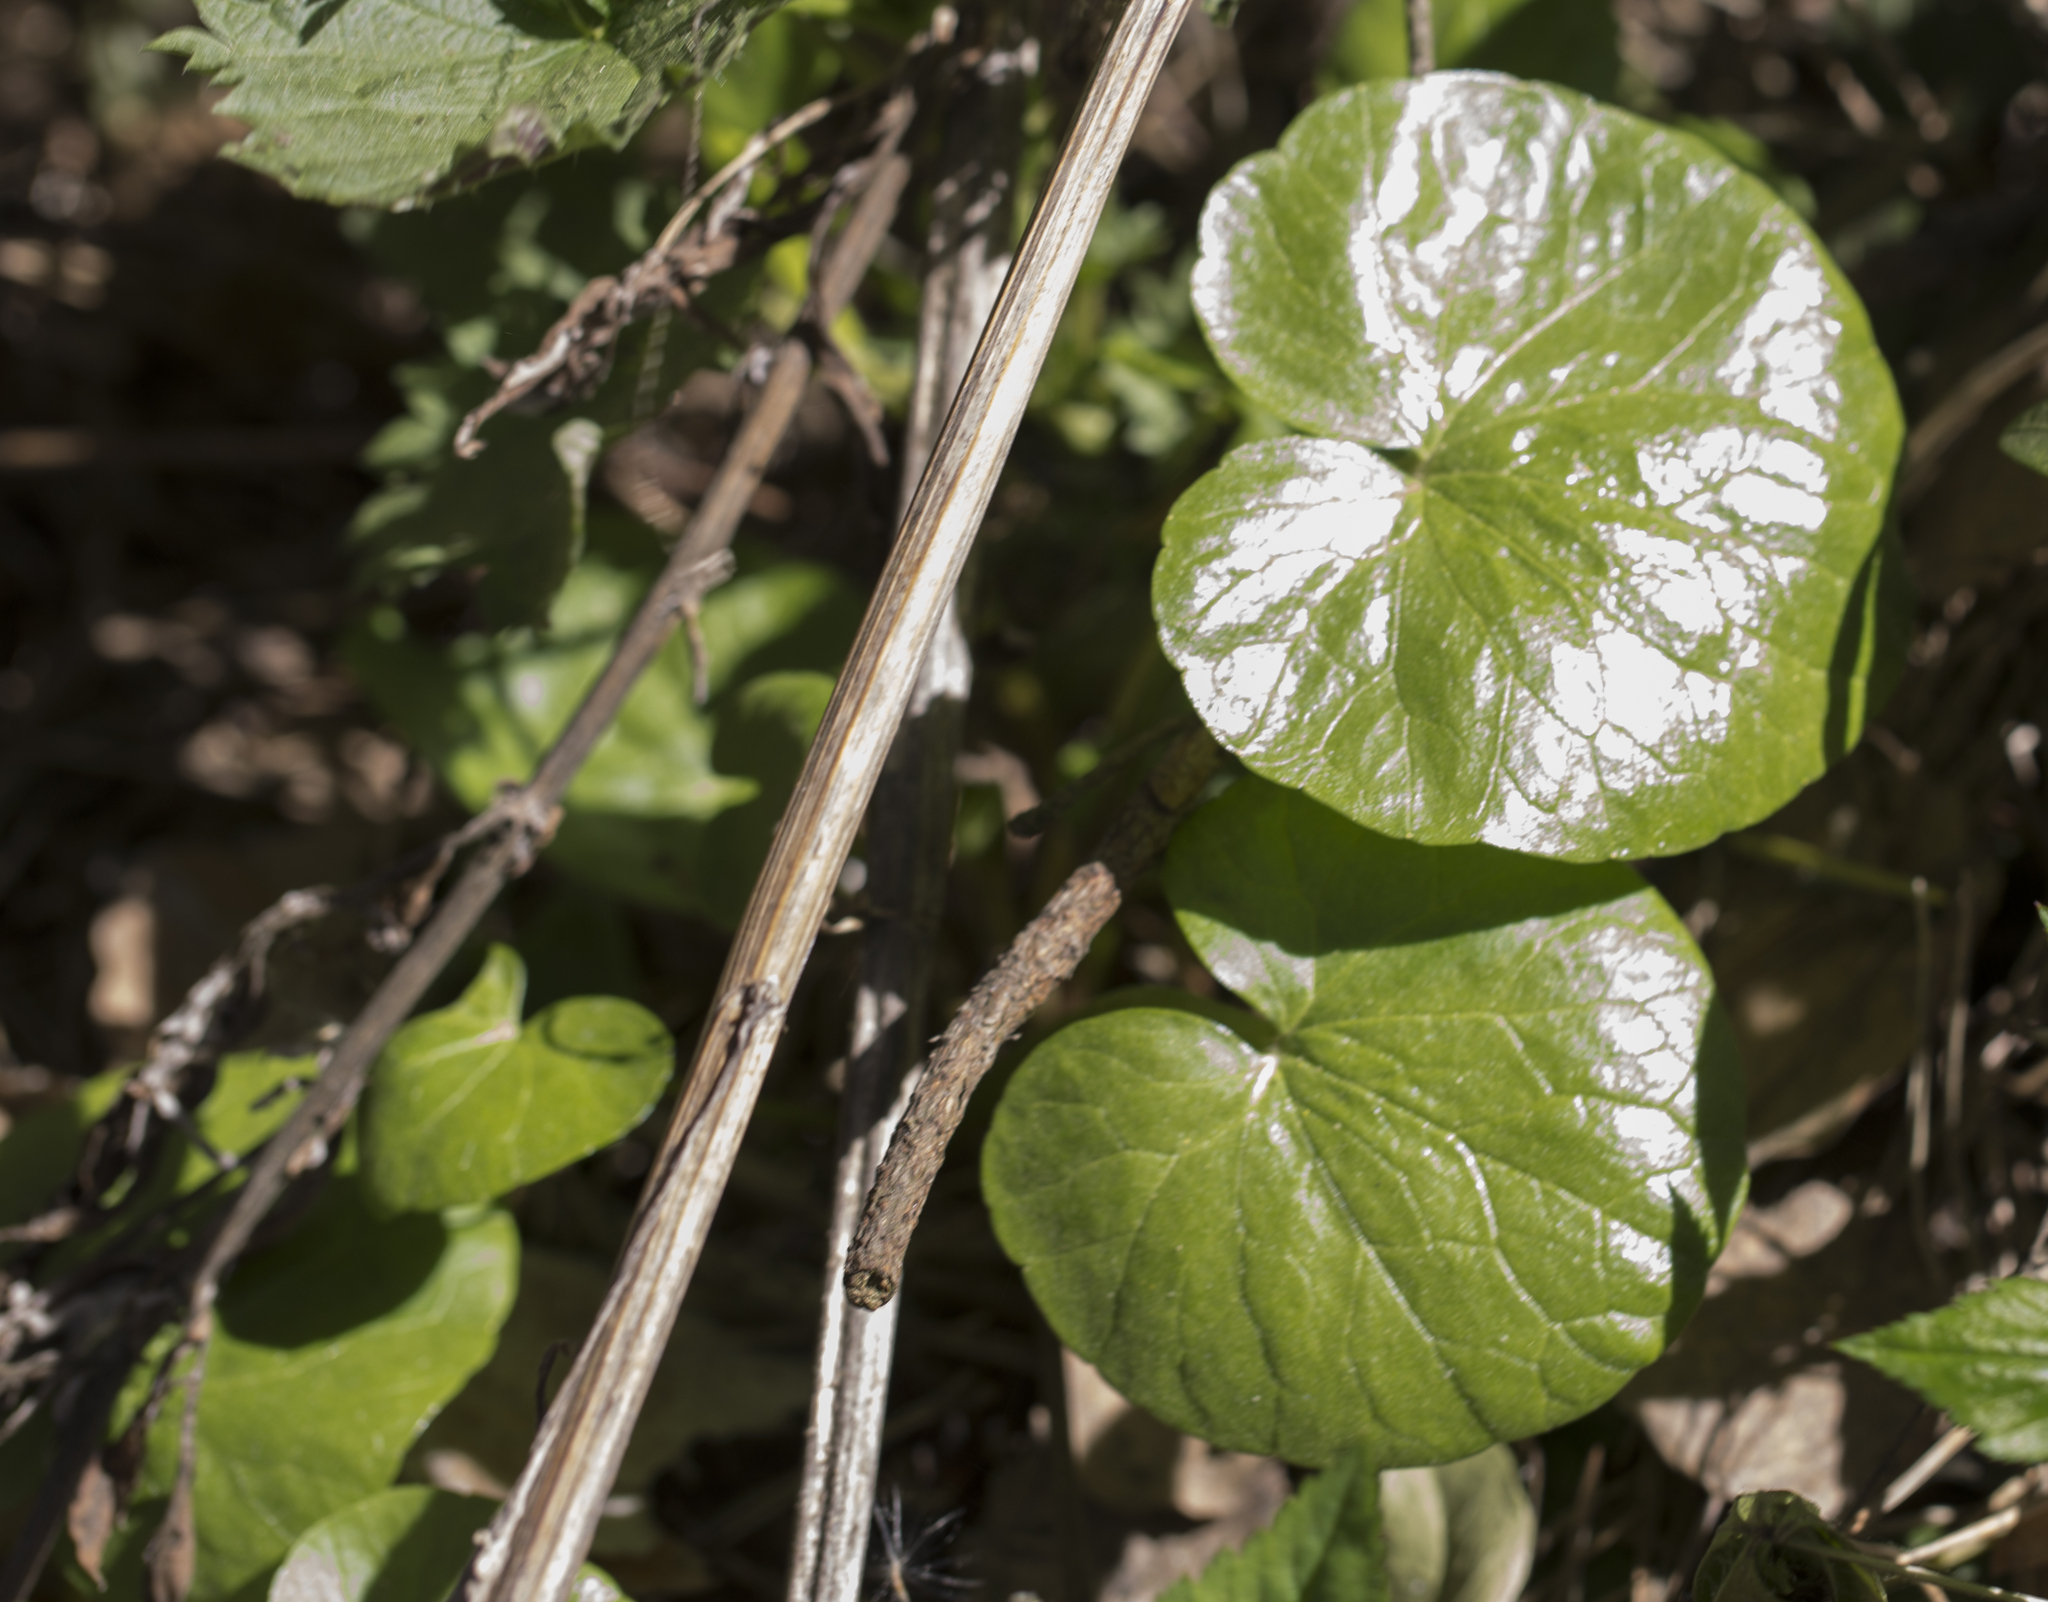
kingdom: Plantae
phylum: Tracheophyta
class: Magnoliopsida
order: Ranunculales
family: Ranunculaceae
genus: Ficaria
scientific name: Ficaria verna
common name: Lesser celandine
